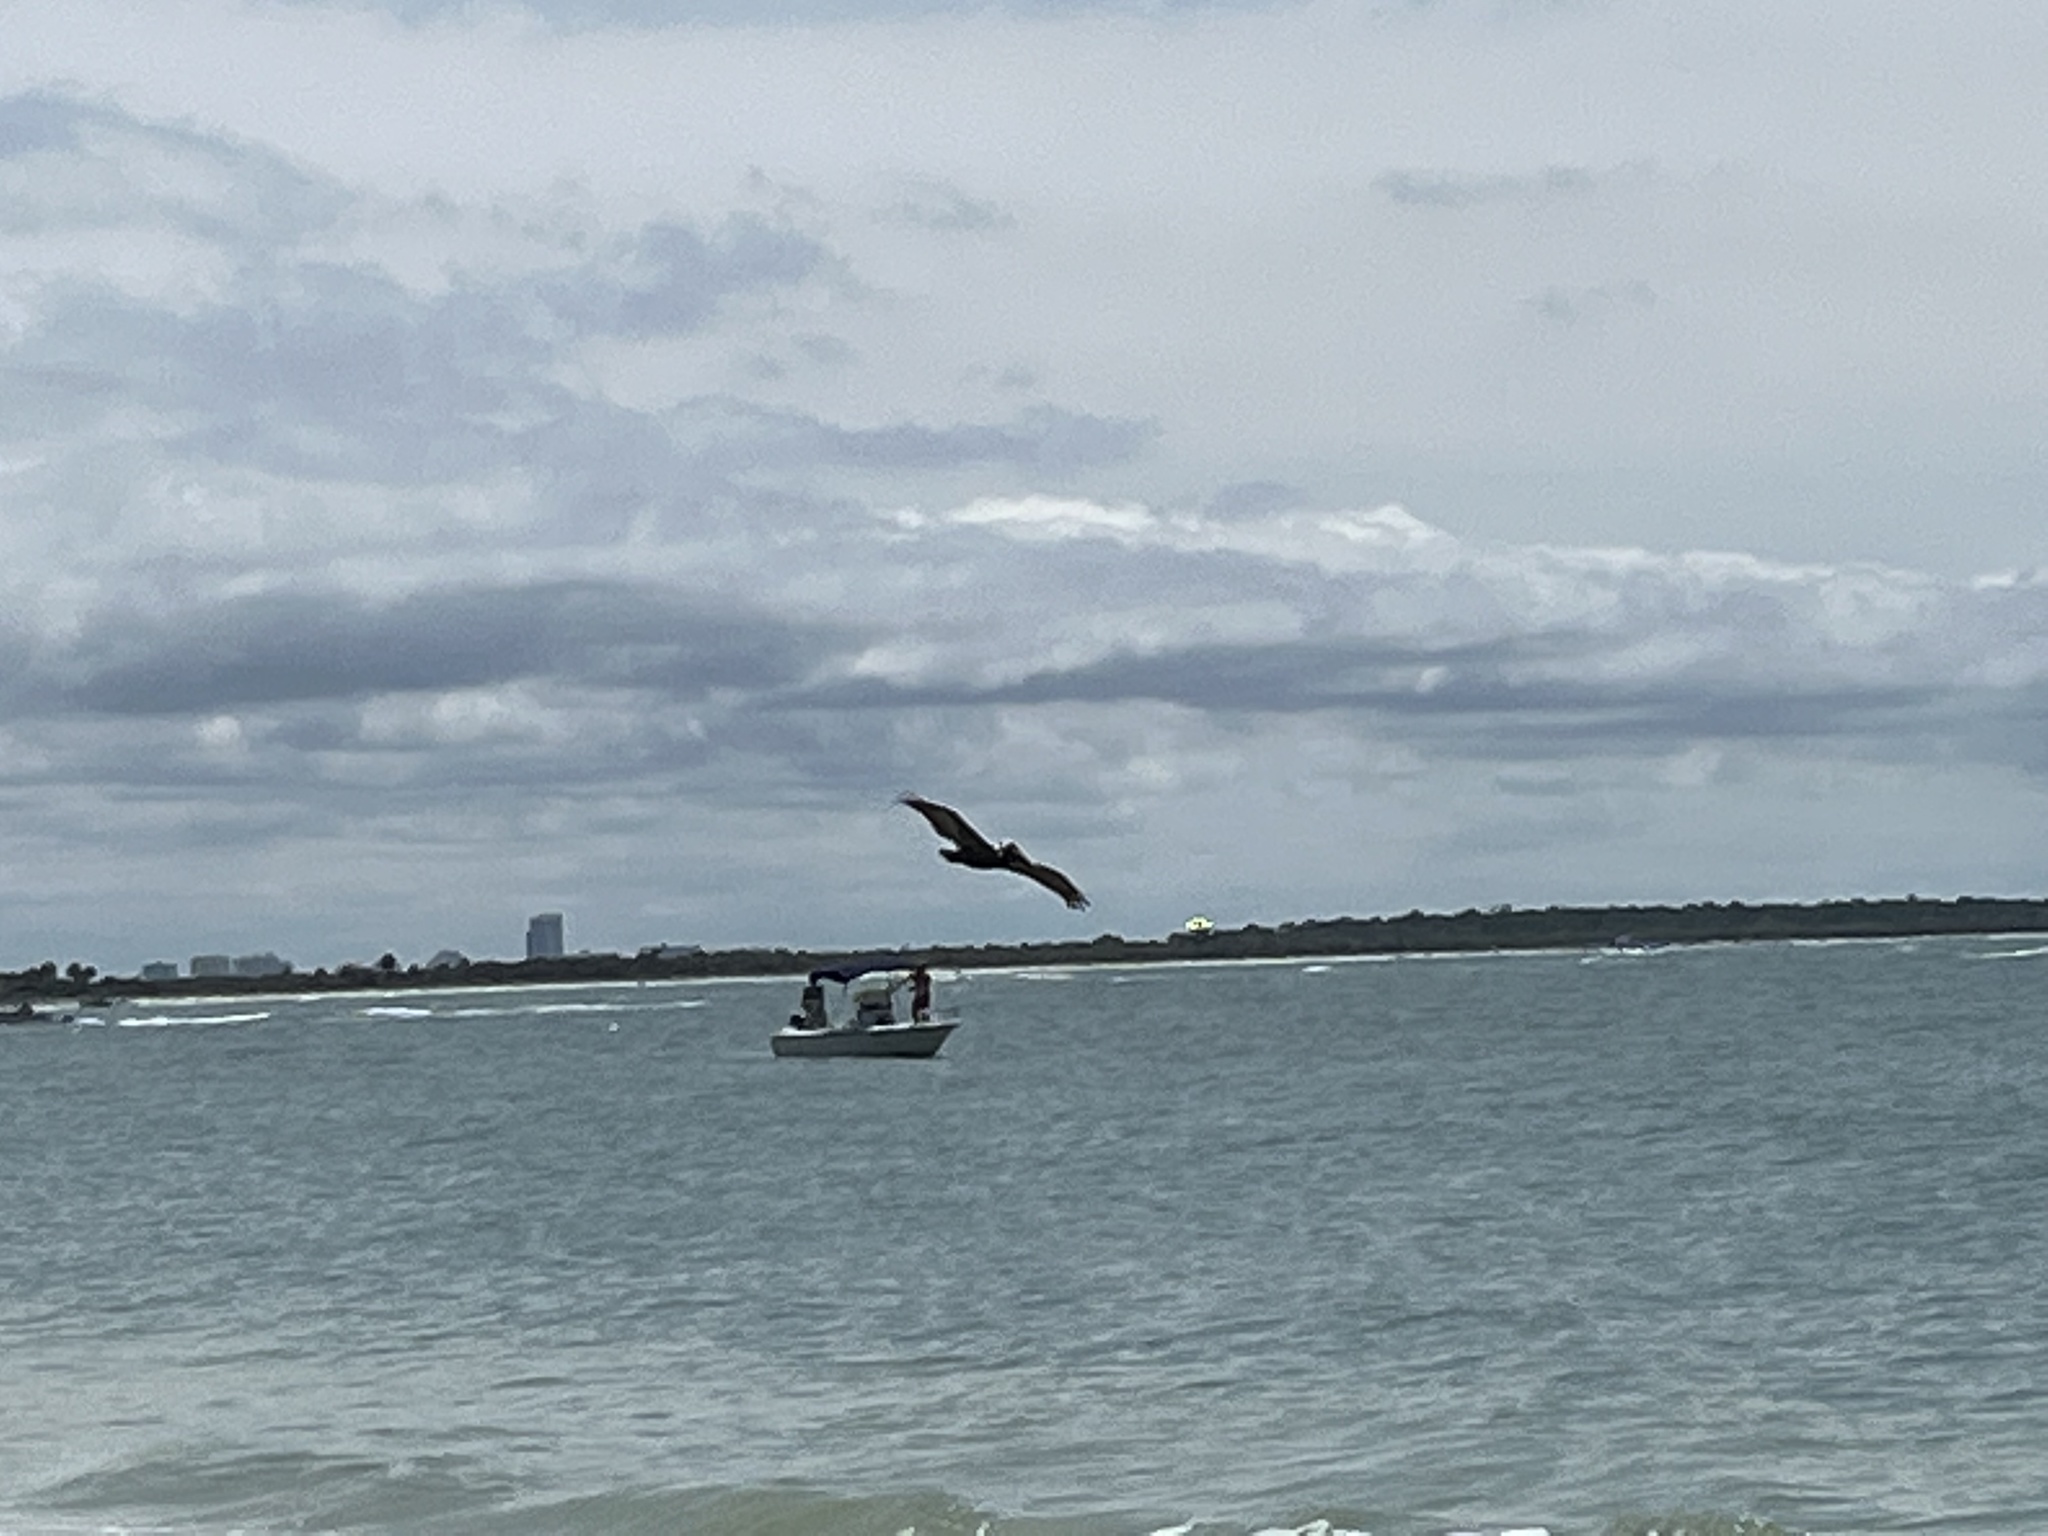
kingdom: Animalia
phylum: Chordata
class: Aves
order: Pelecaniformes
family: Pelecanidae
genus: Pelecanus
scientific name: Pelecanus occidentalis
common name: Brown pelican
